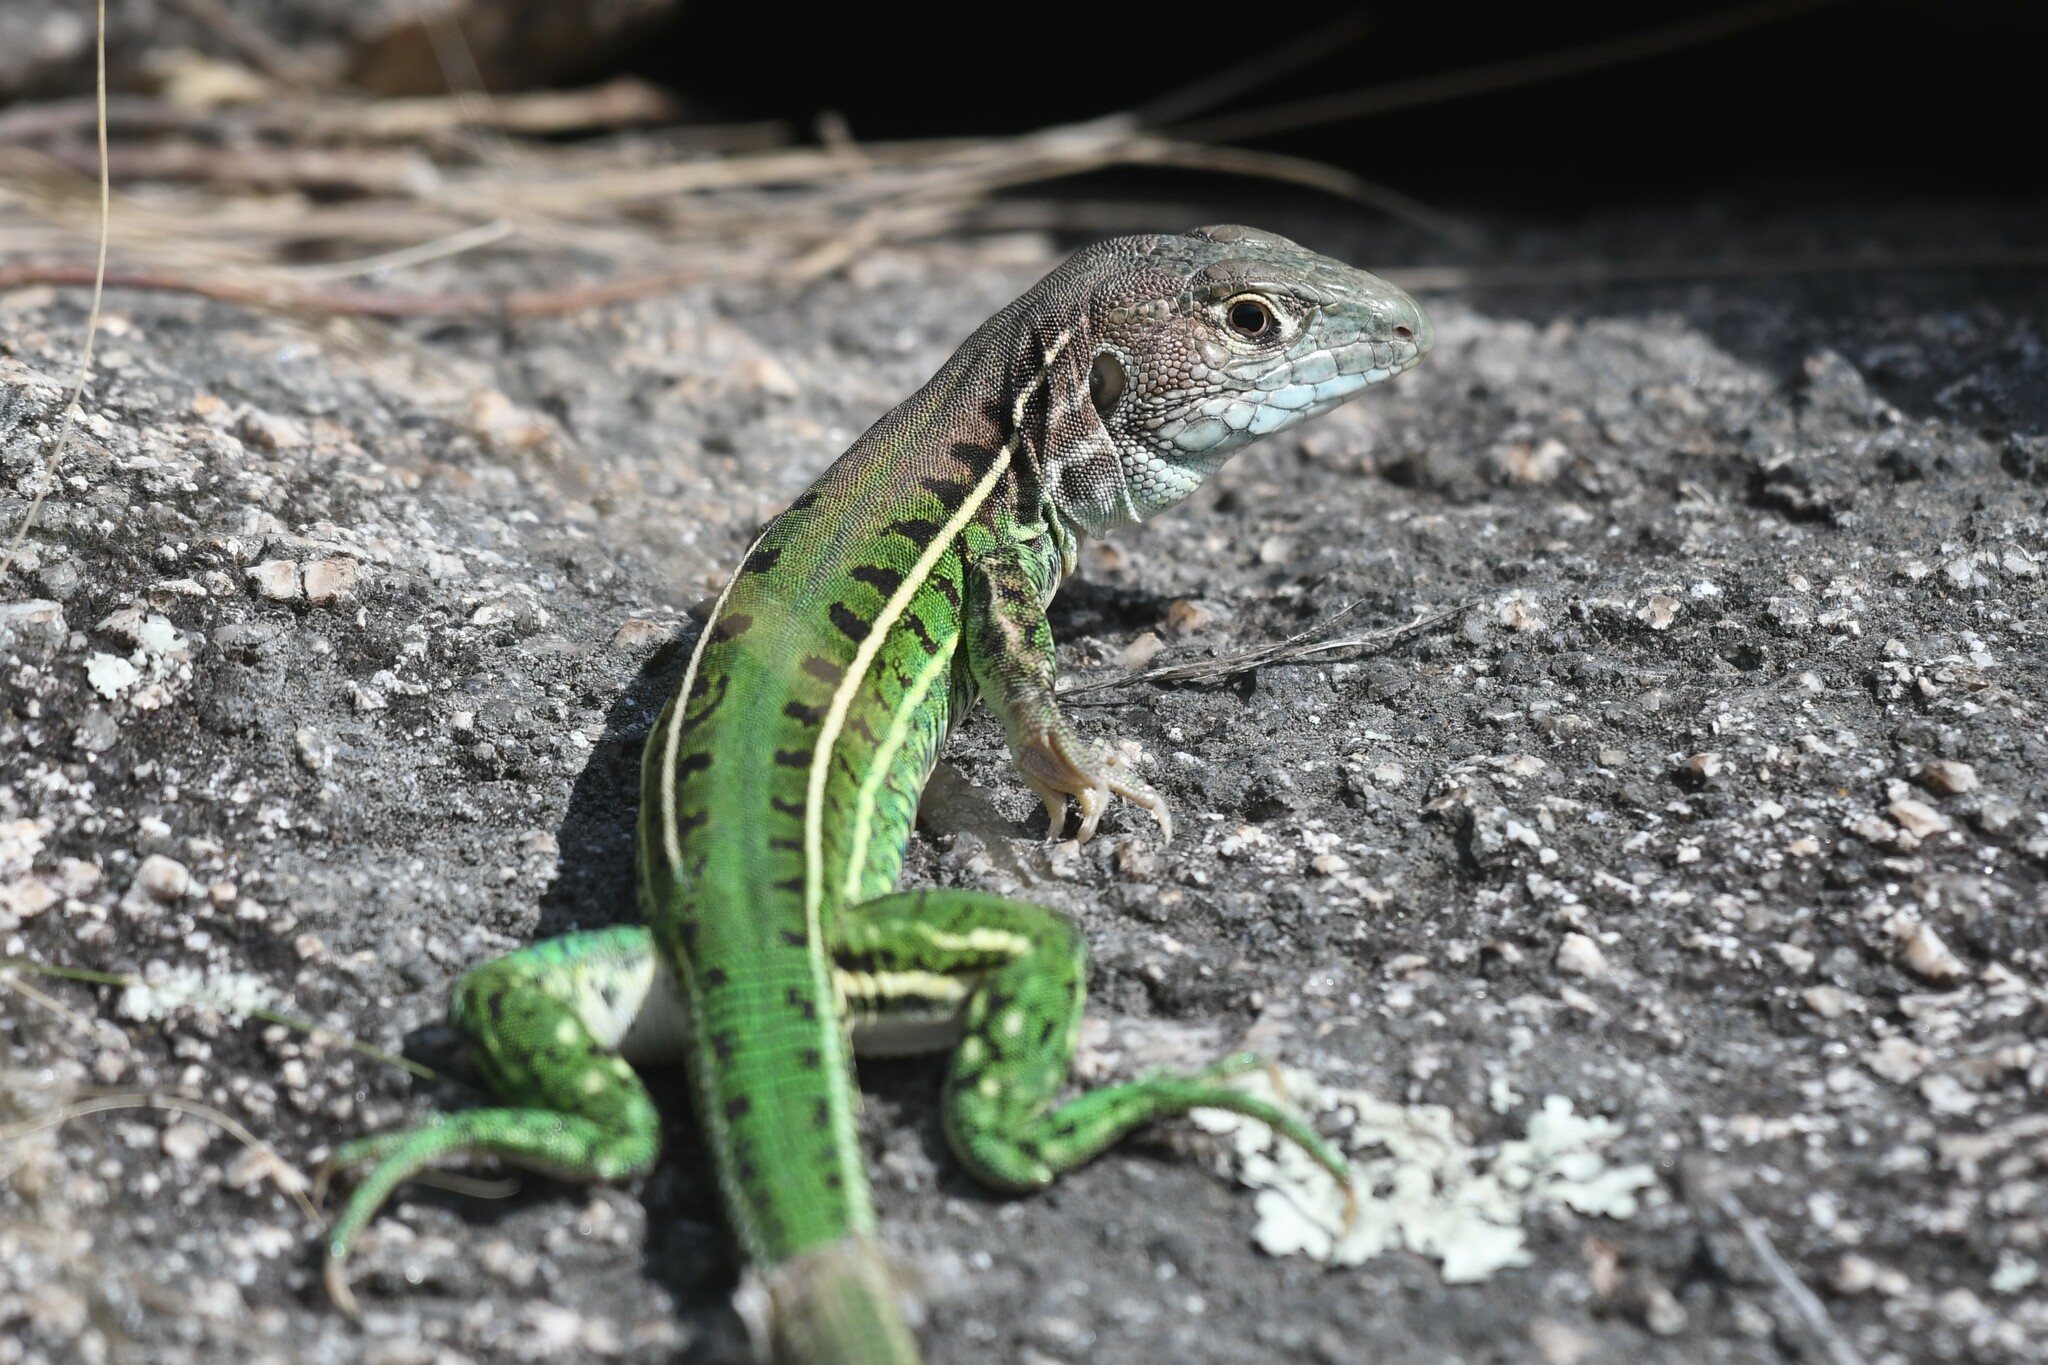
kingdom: Animalia
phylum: Chordata
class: Squamata
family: Teiidae
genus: Teius
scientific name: Teius oculatus
